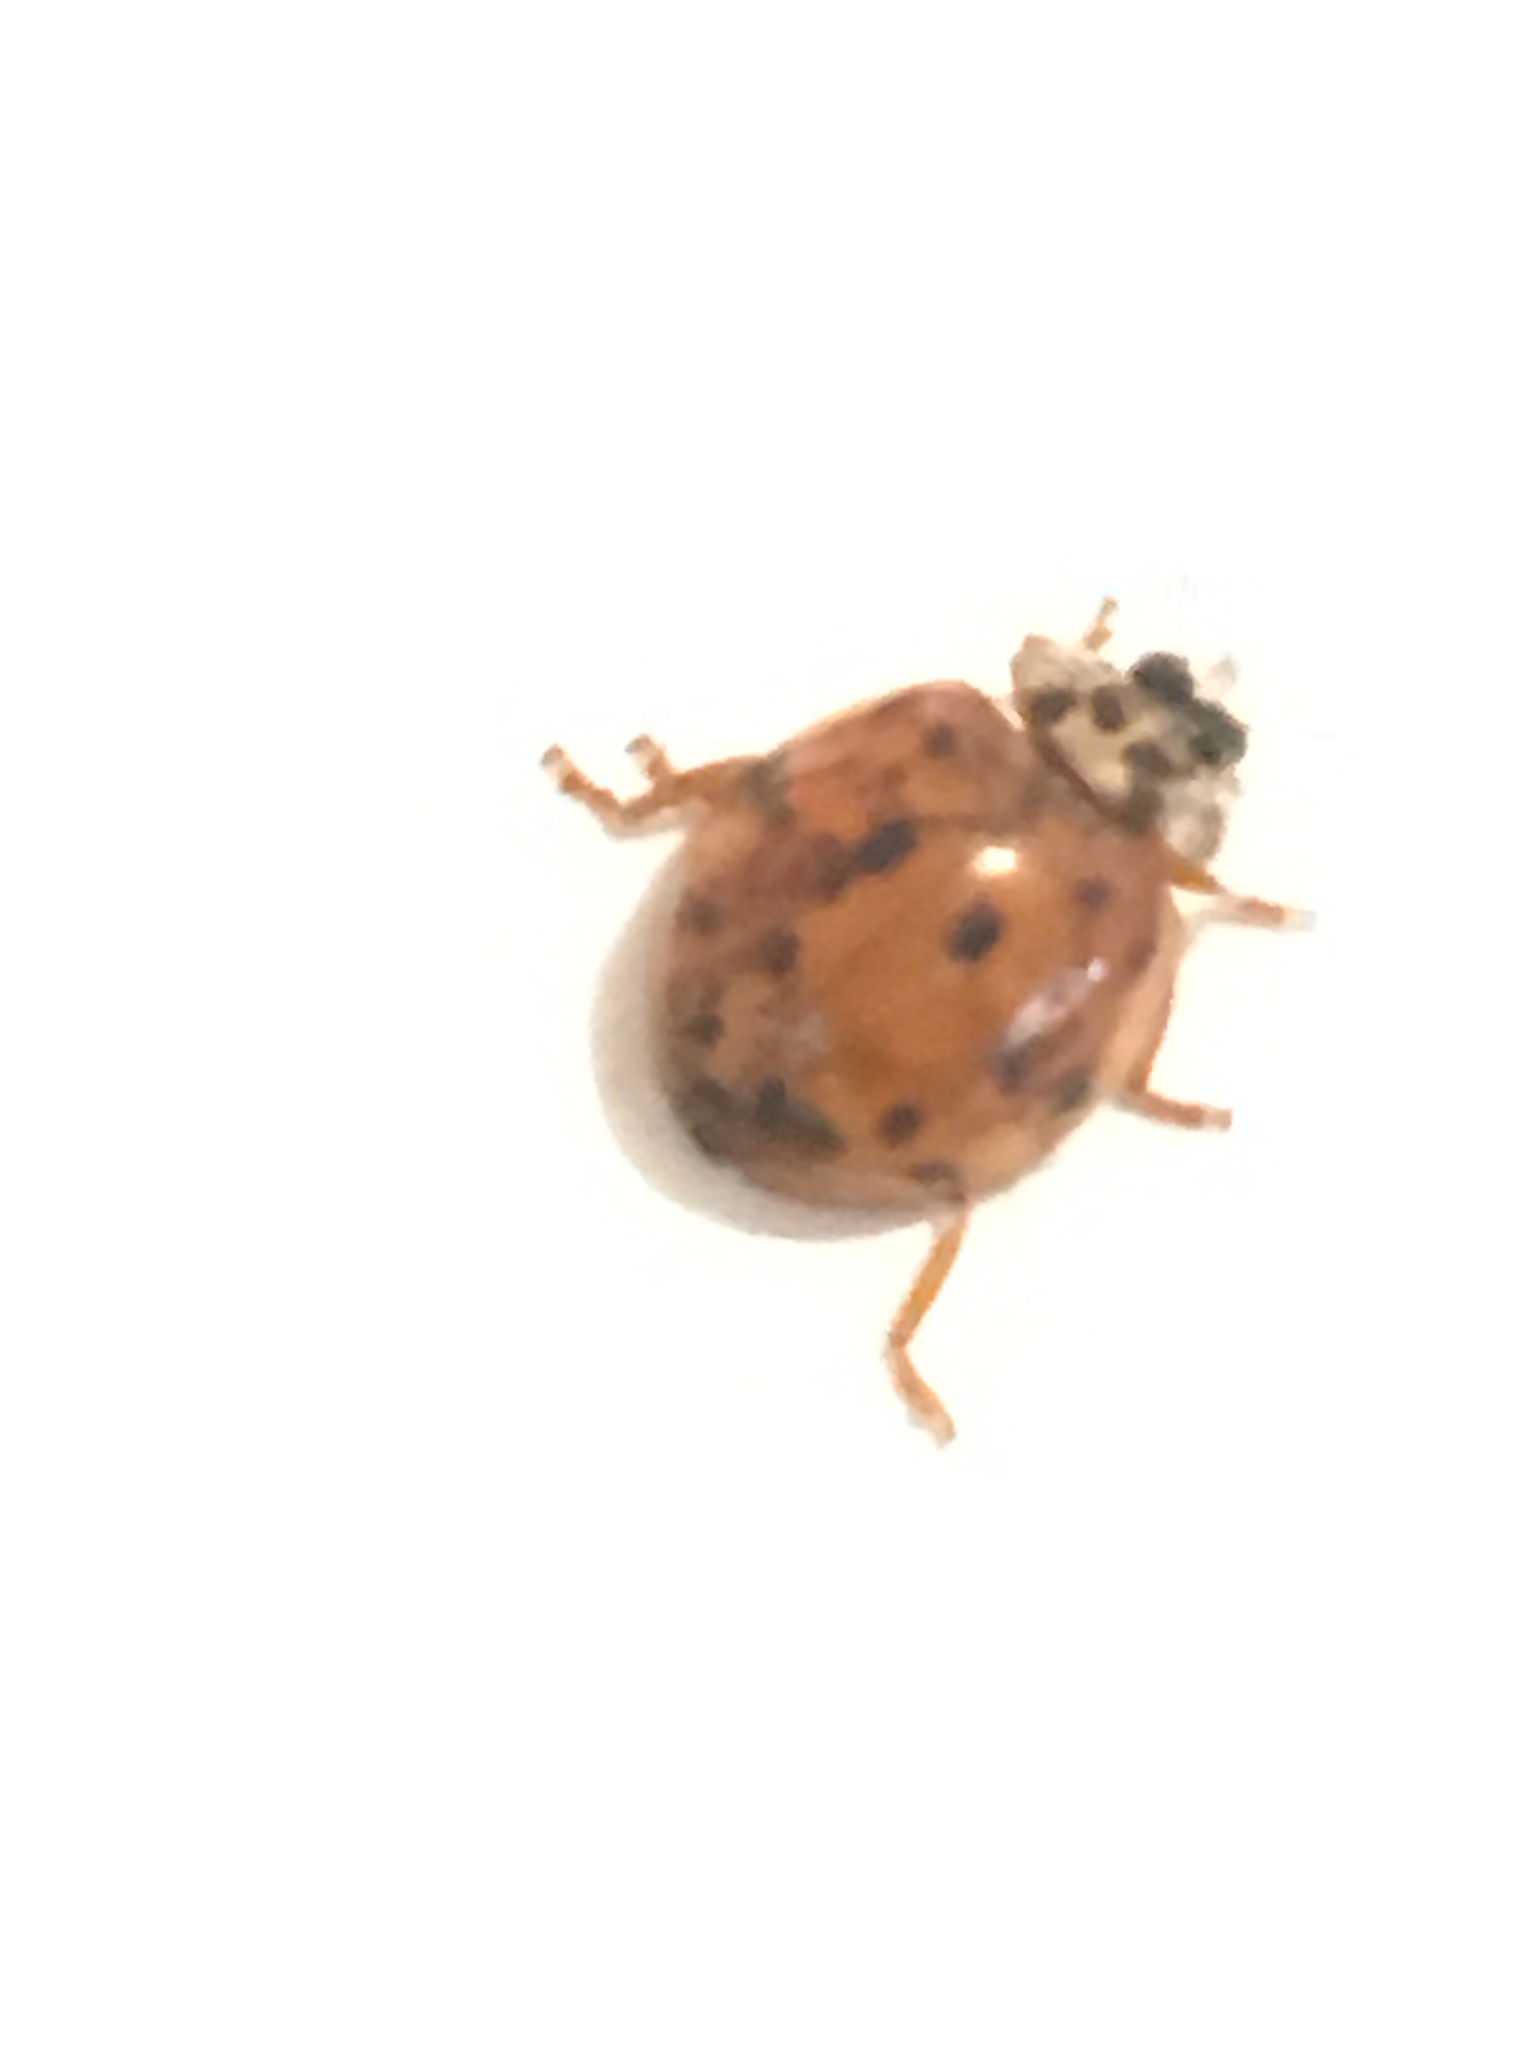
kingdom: Animalia
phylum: Arthropoda
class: Insecta
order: Coleoptera
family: Coccinellidae
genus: Harmonia
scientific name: Harmonia axyridis
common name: Harlequin ladybird
